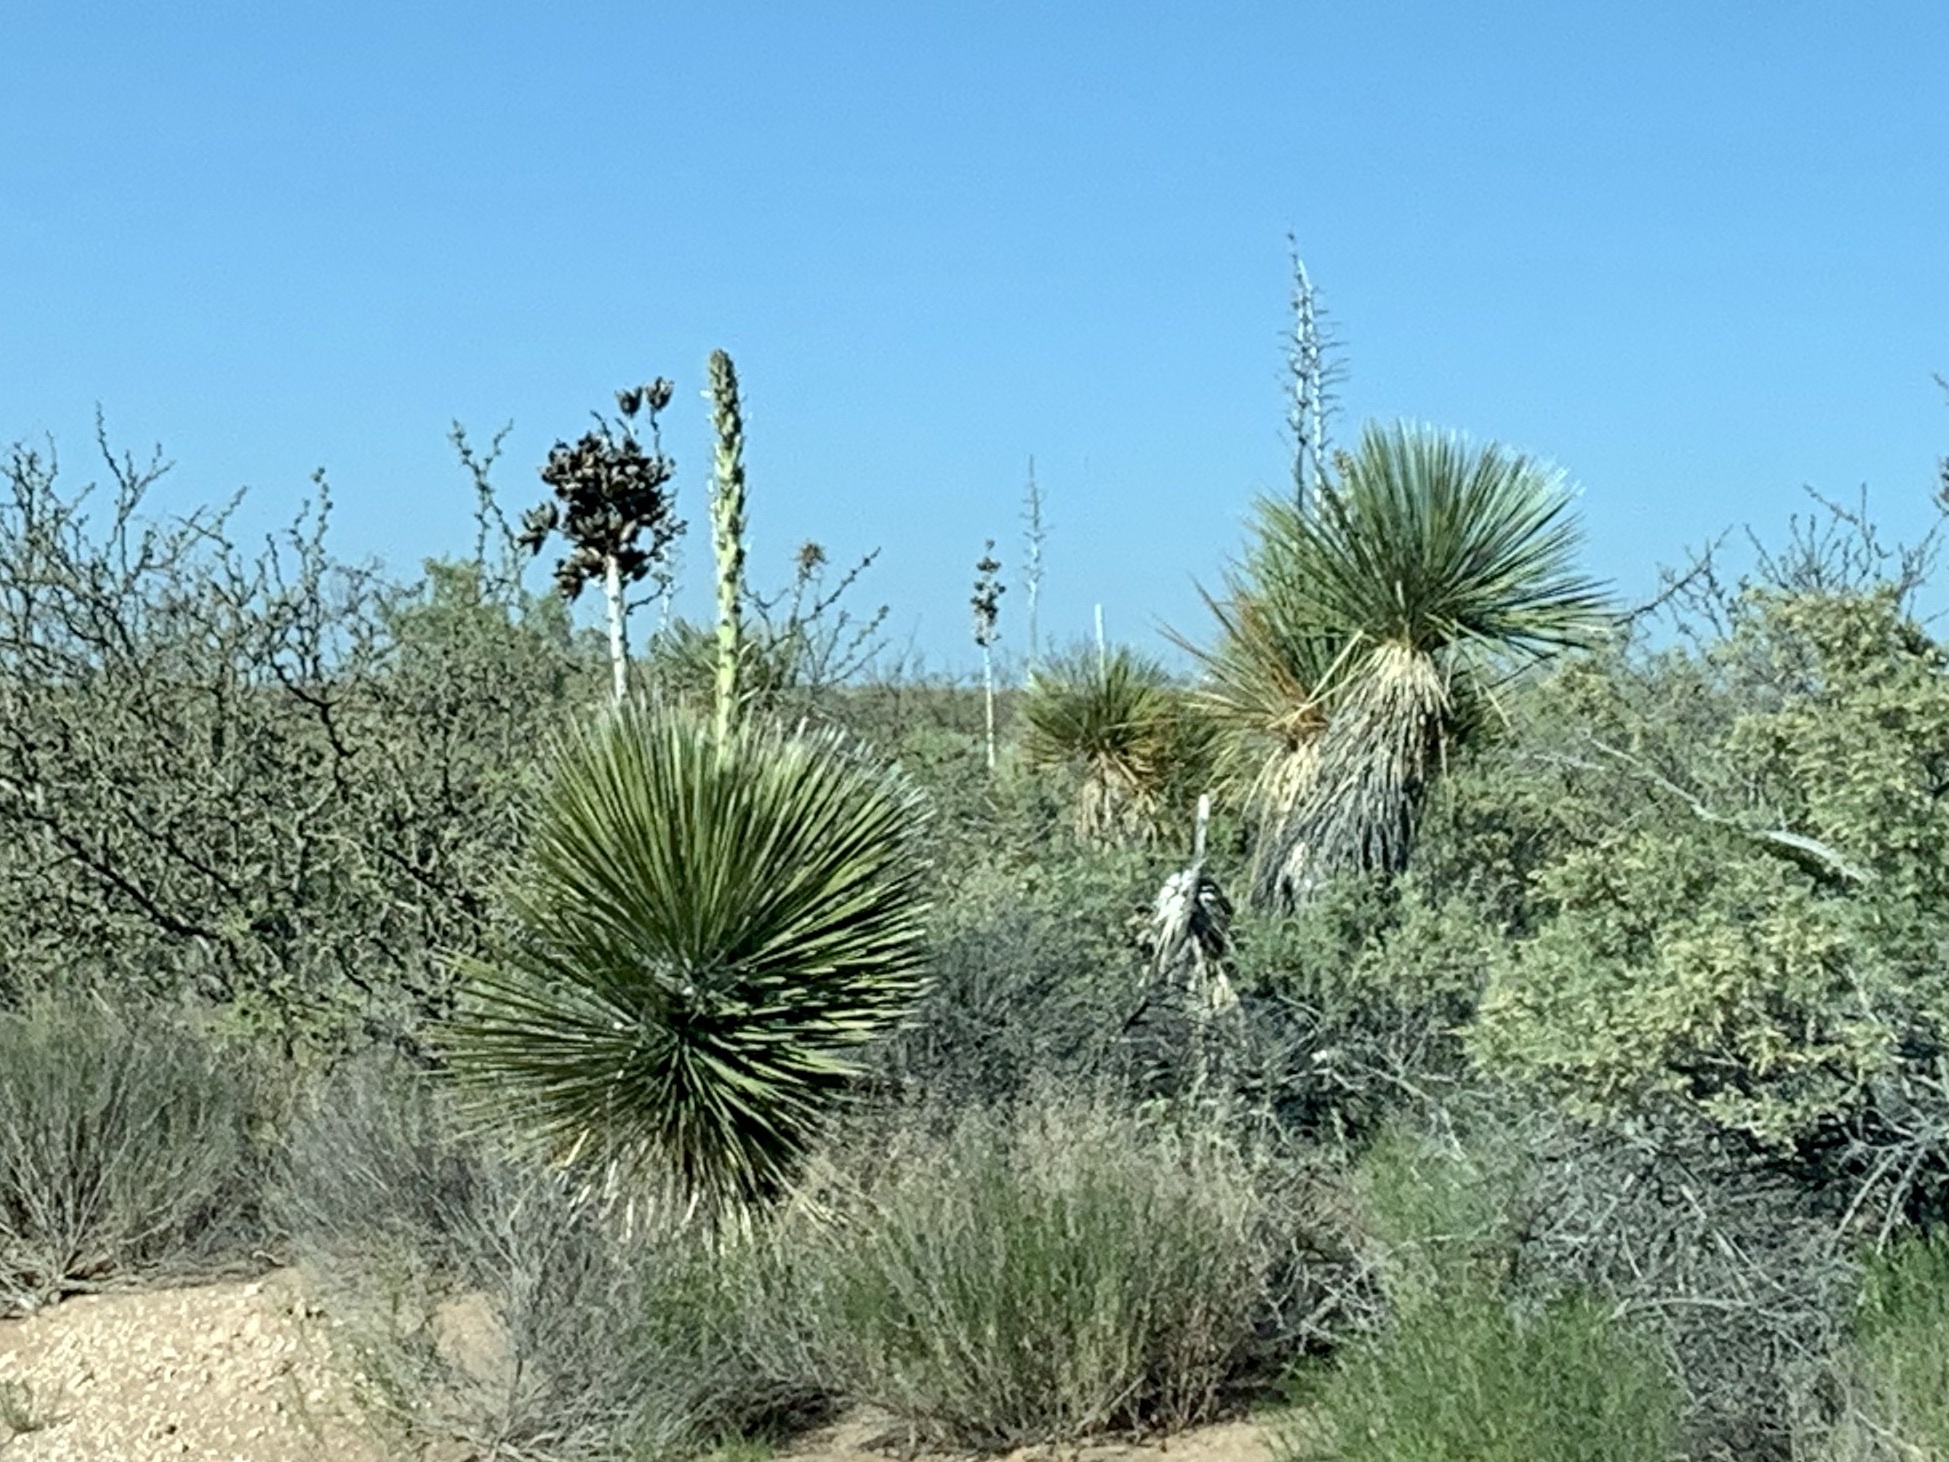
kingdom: Plantae
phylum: Tracheophyta
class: Liliopsida
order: Asparagales
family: Asparagaceae
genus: Yucca
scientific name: Yucca elata
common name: Palmella
